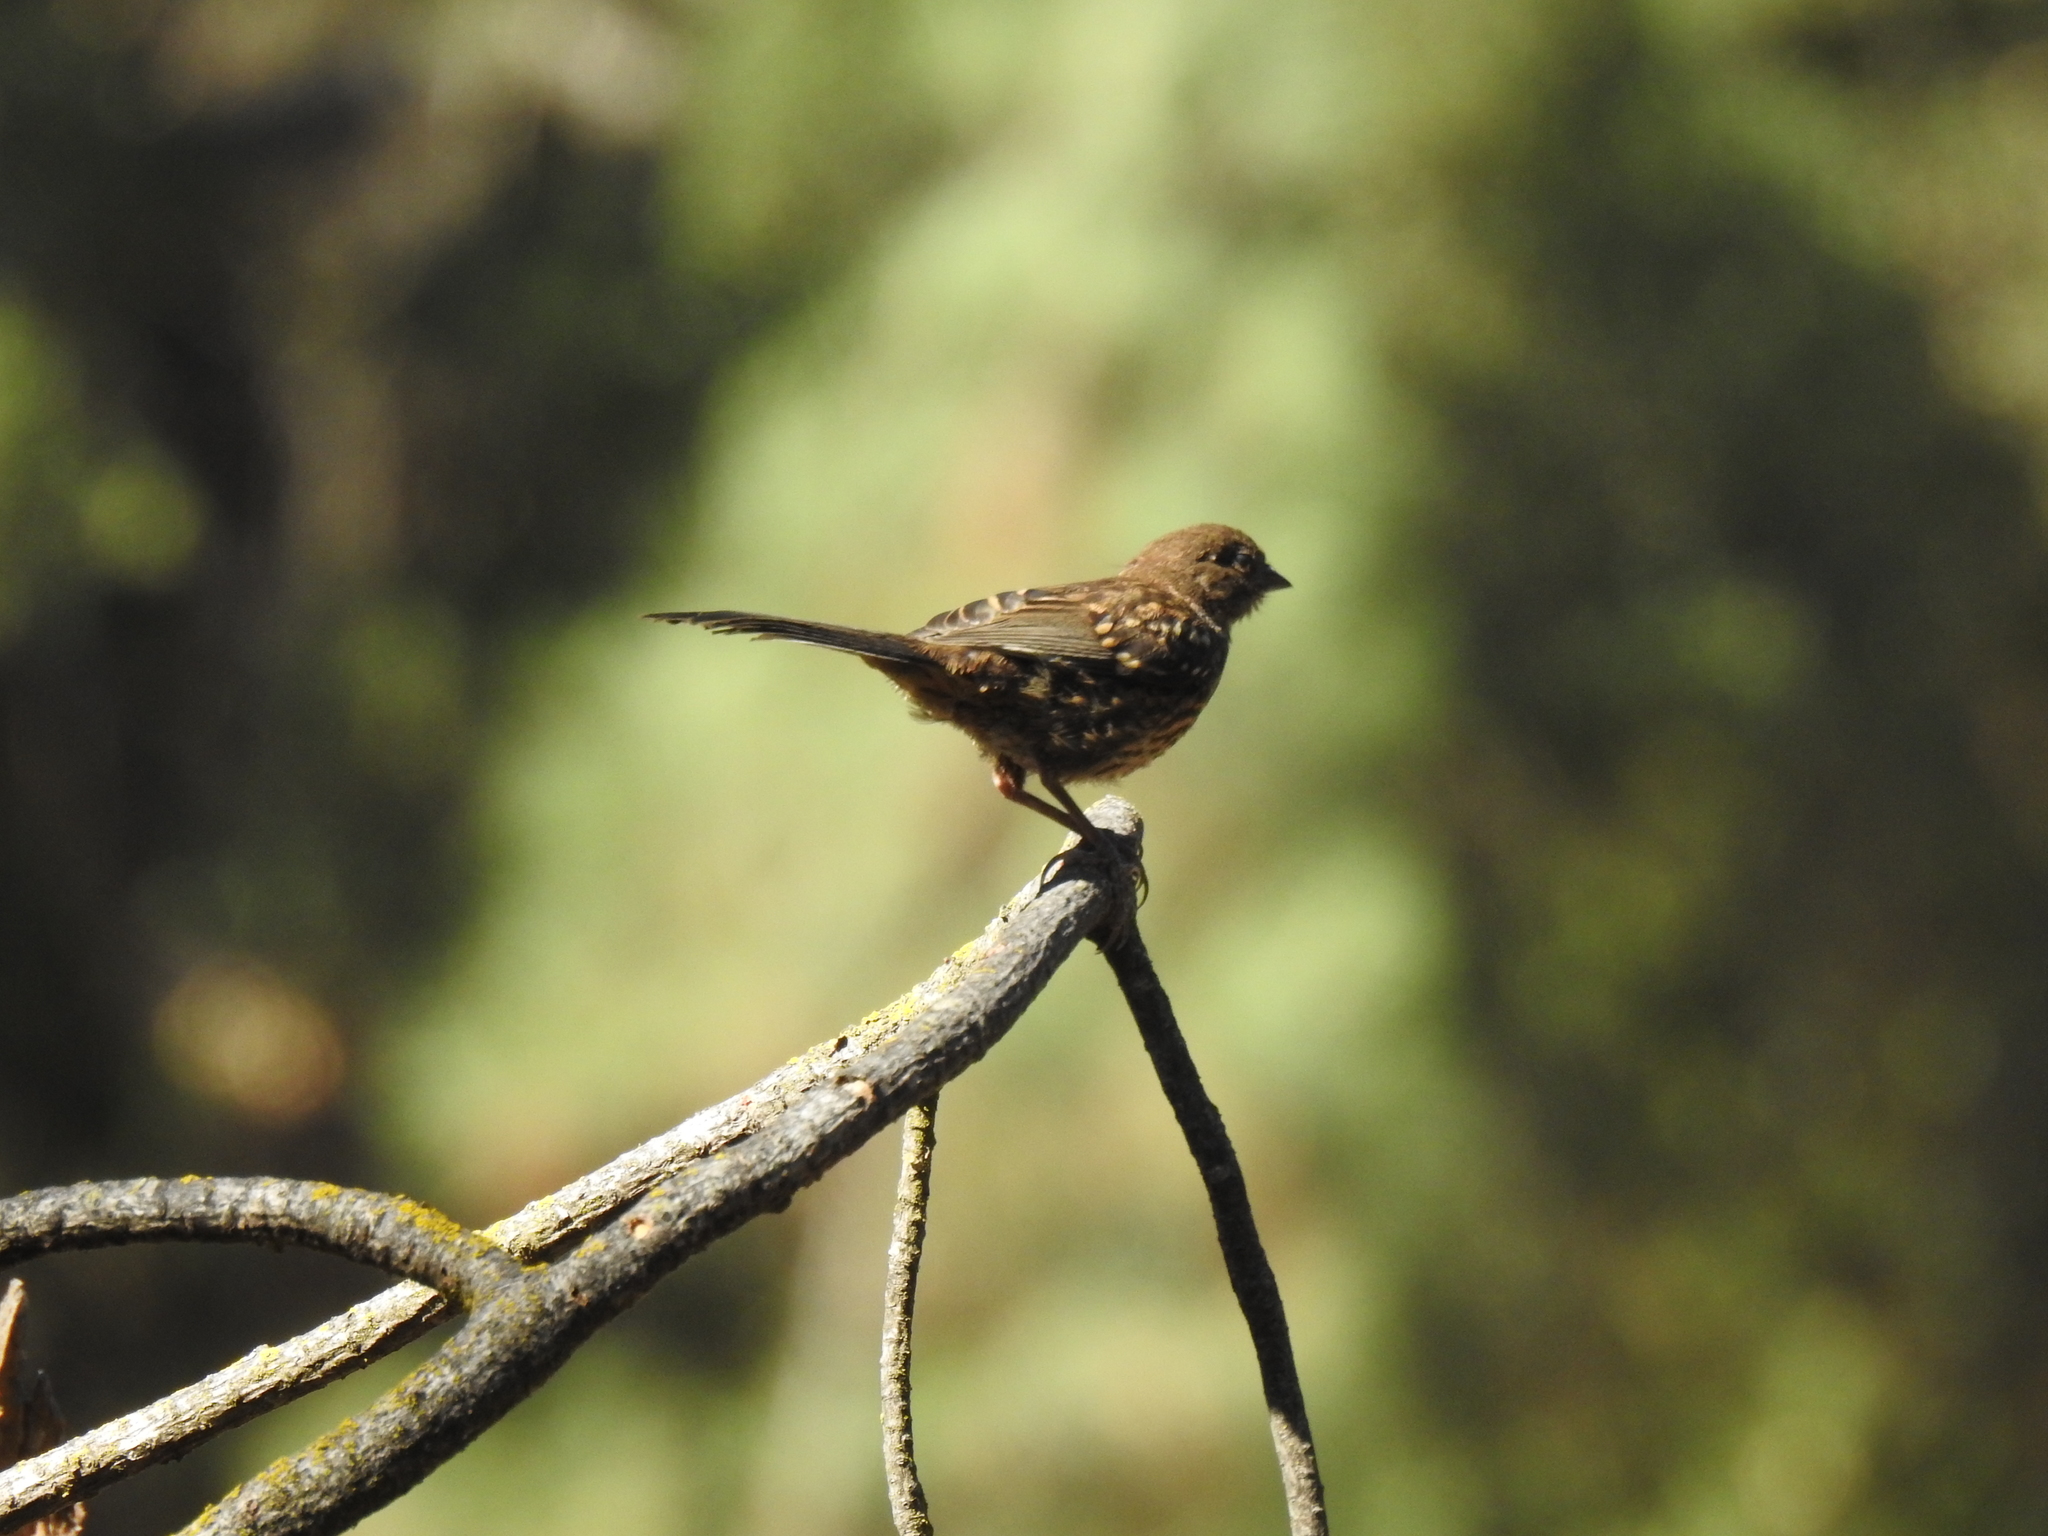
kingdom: Animalia
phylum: Chordata
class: Aves
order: Passeriformes
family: Passerellidae
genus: Pipilo
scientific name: Pipilo maculatus
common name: Spotted towhee
